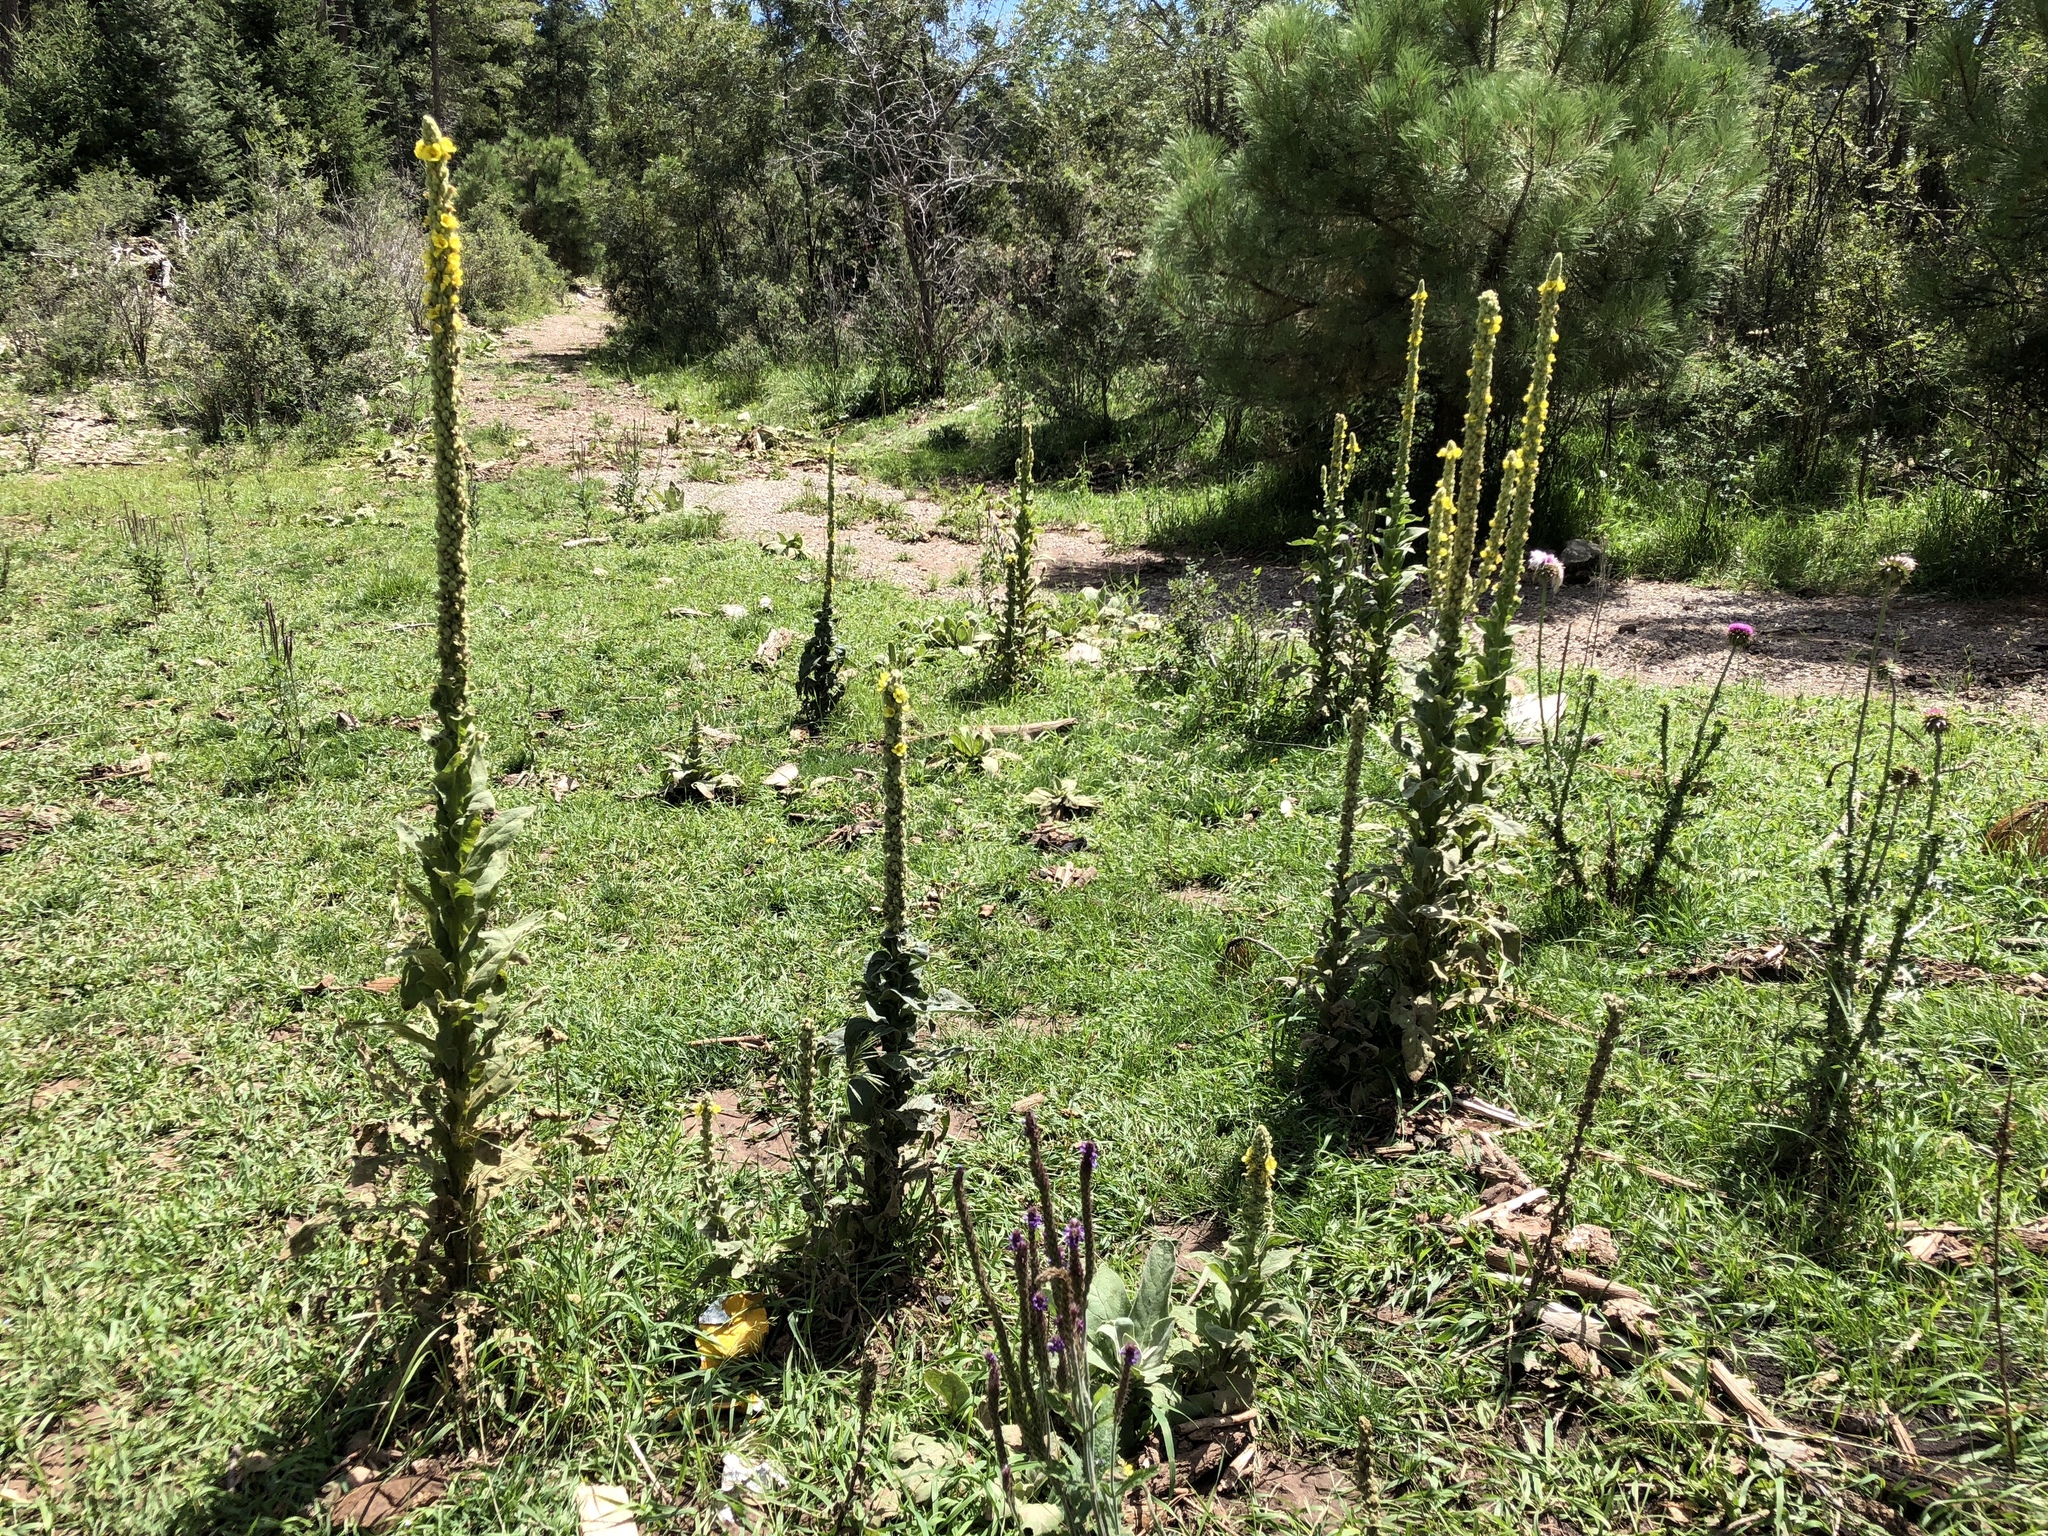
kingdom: Plantae
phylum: Tracheophyta
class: Magnoliopsida
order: Lamiales
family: Scrophulariaceae
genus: Verbascum
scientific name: Verbascum thapsus
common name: Common mullein
